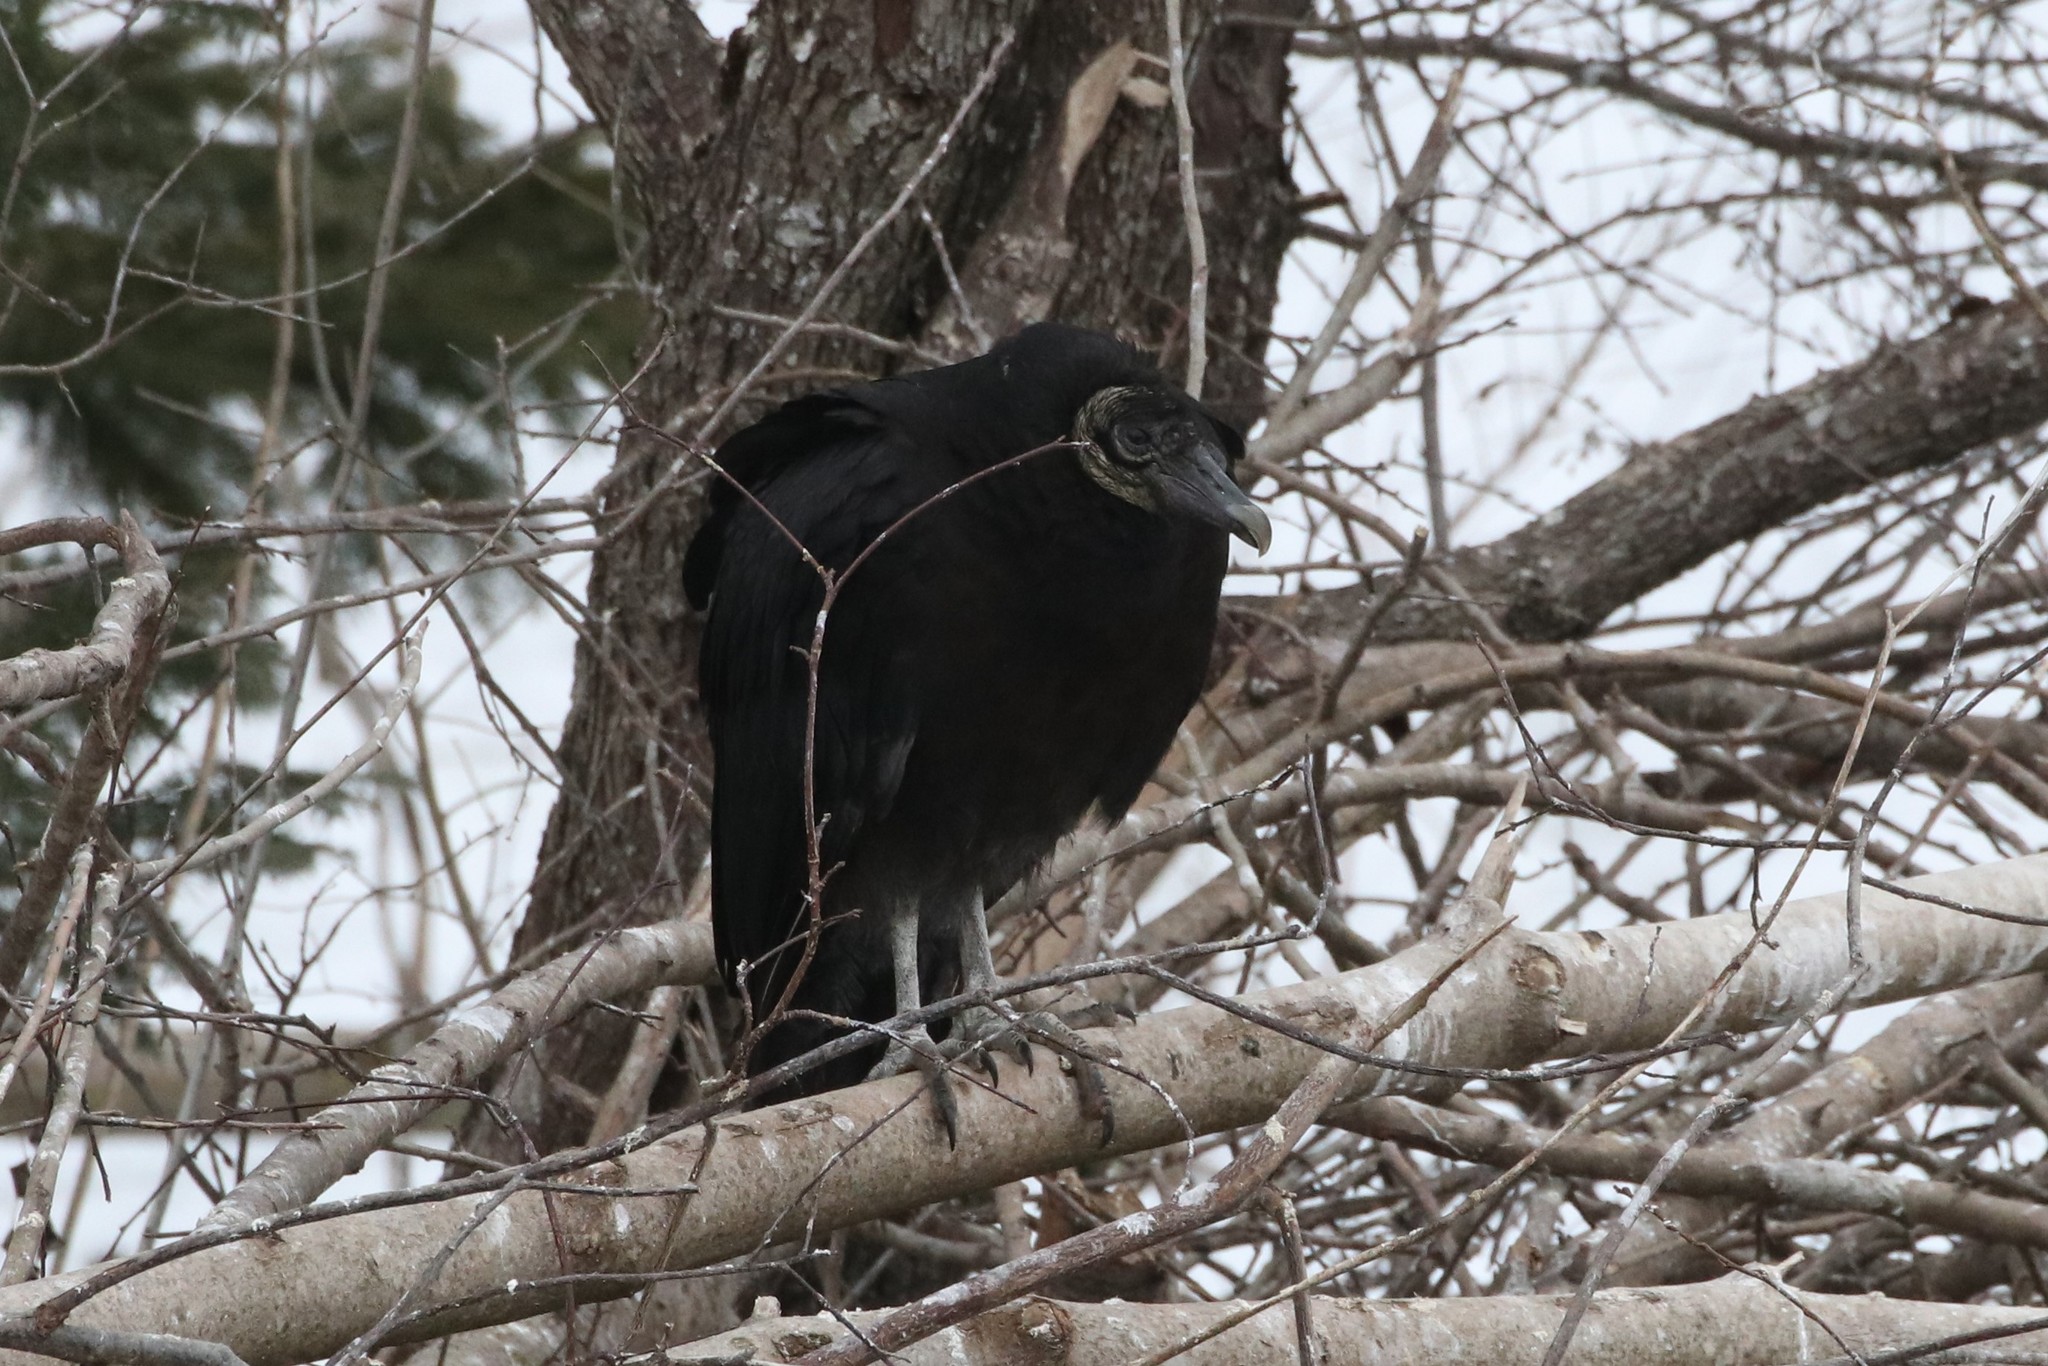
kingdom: Animalia
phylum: Chordata
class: Aves
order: Accipitriformes
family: Cathartidae
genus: Coragyps
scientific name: Coragyps atratus
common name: Black vulture
